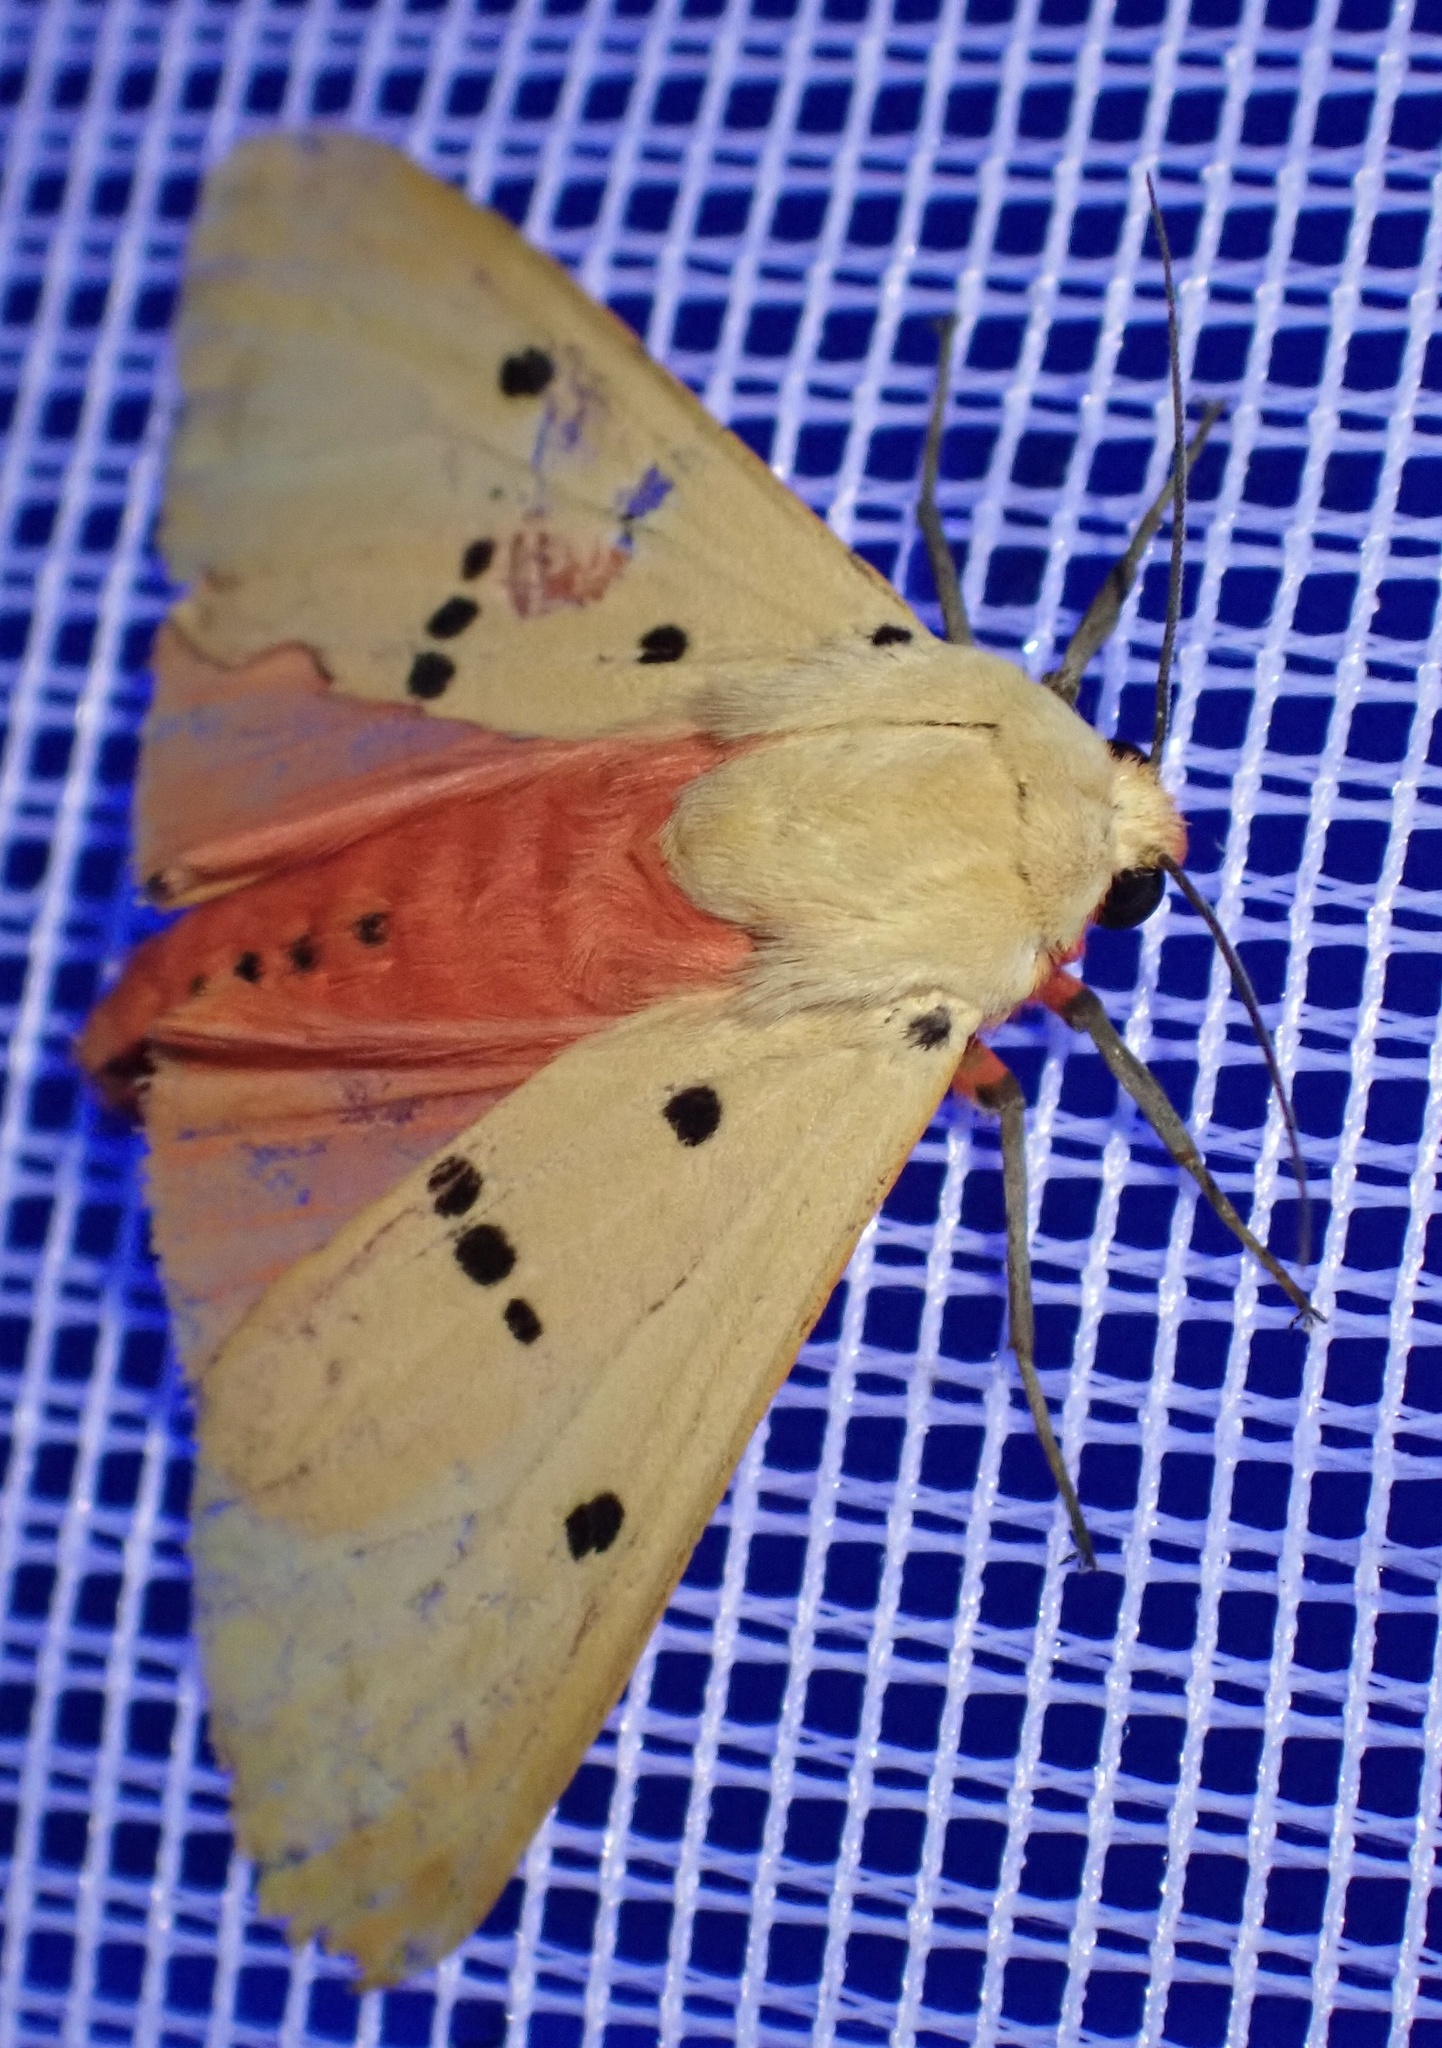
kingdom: Animalia
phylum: Arthropoda
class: Insecta
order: Lepidoptera
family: Erebidae
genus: Nicetosoma
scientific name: Nicetosoma
